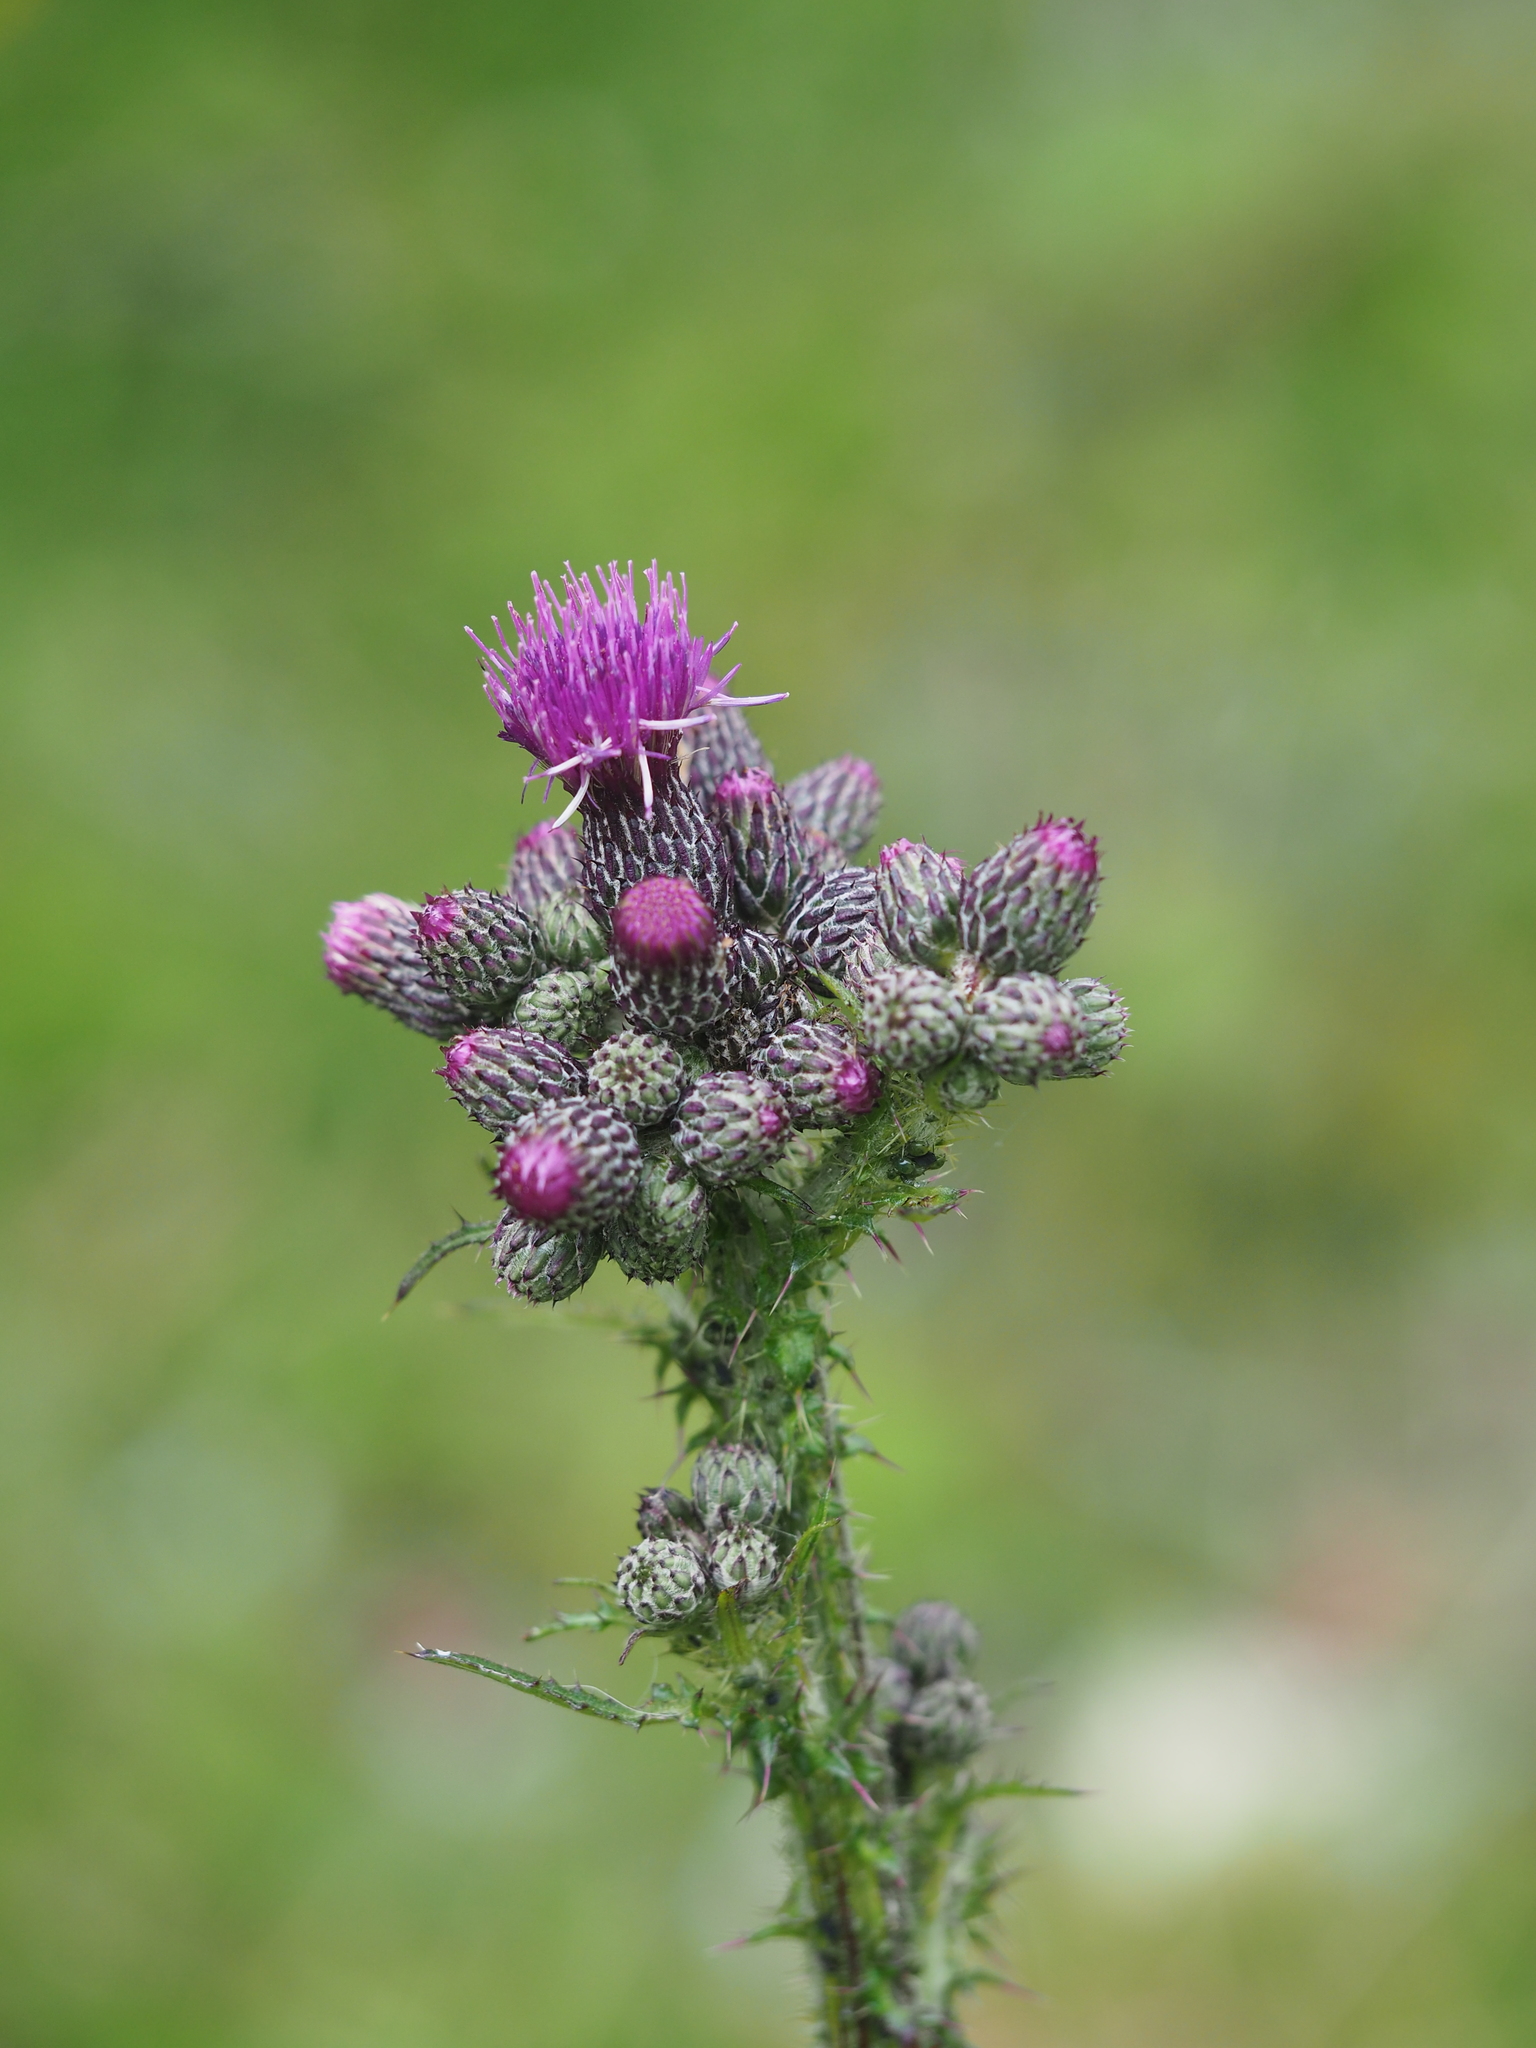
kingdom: Plantae
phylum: Tracheophyta
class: Magnoliopsida
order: Asterales
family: Asteraceae
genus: Cirsium
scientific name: Cirsium palustre
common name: Marsh thistle
